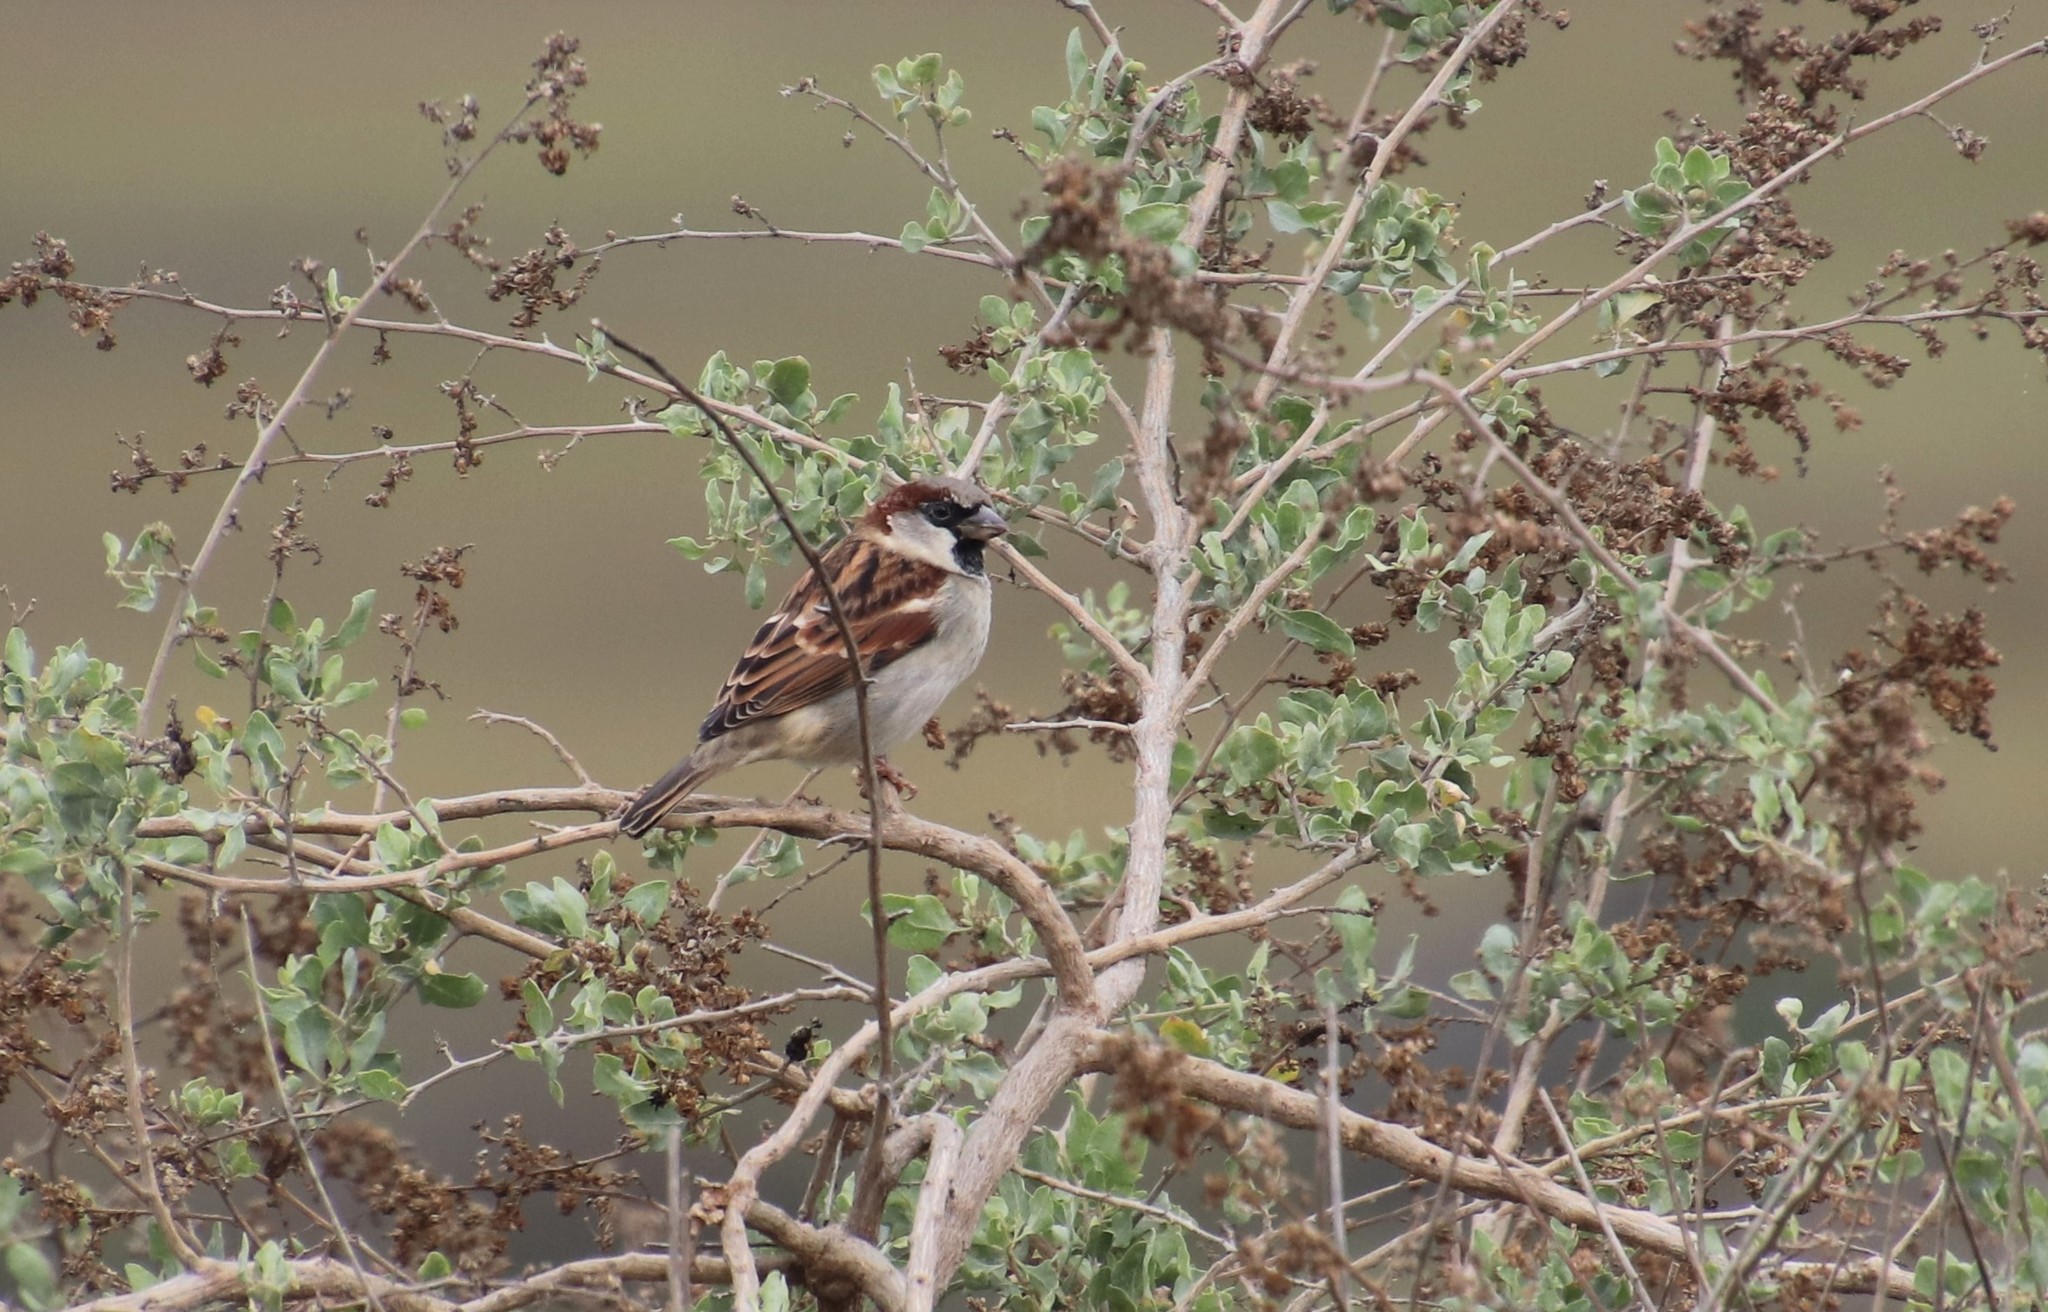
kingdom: Animalia
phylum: Chordata
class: Aves
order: Passeriformes
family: Passeridae
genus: Passer
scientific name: Passer domesticus
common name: House sparrow
